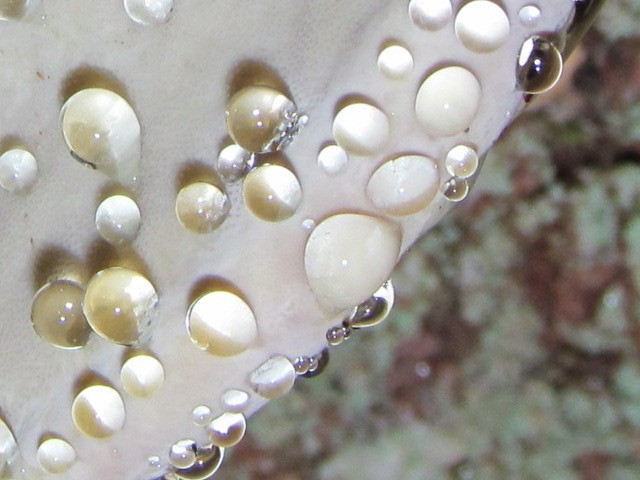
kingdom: Fungi
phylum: Basidiomycota
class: Agaricomycetes
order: Polyporales
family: Fomitopsidaceae
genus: Fomitopsis
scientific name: Fomitopsis mounceae
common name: Northern red belt
